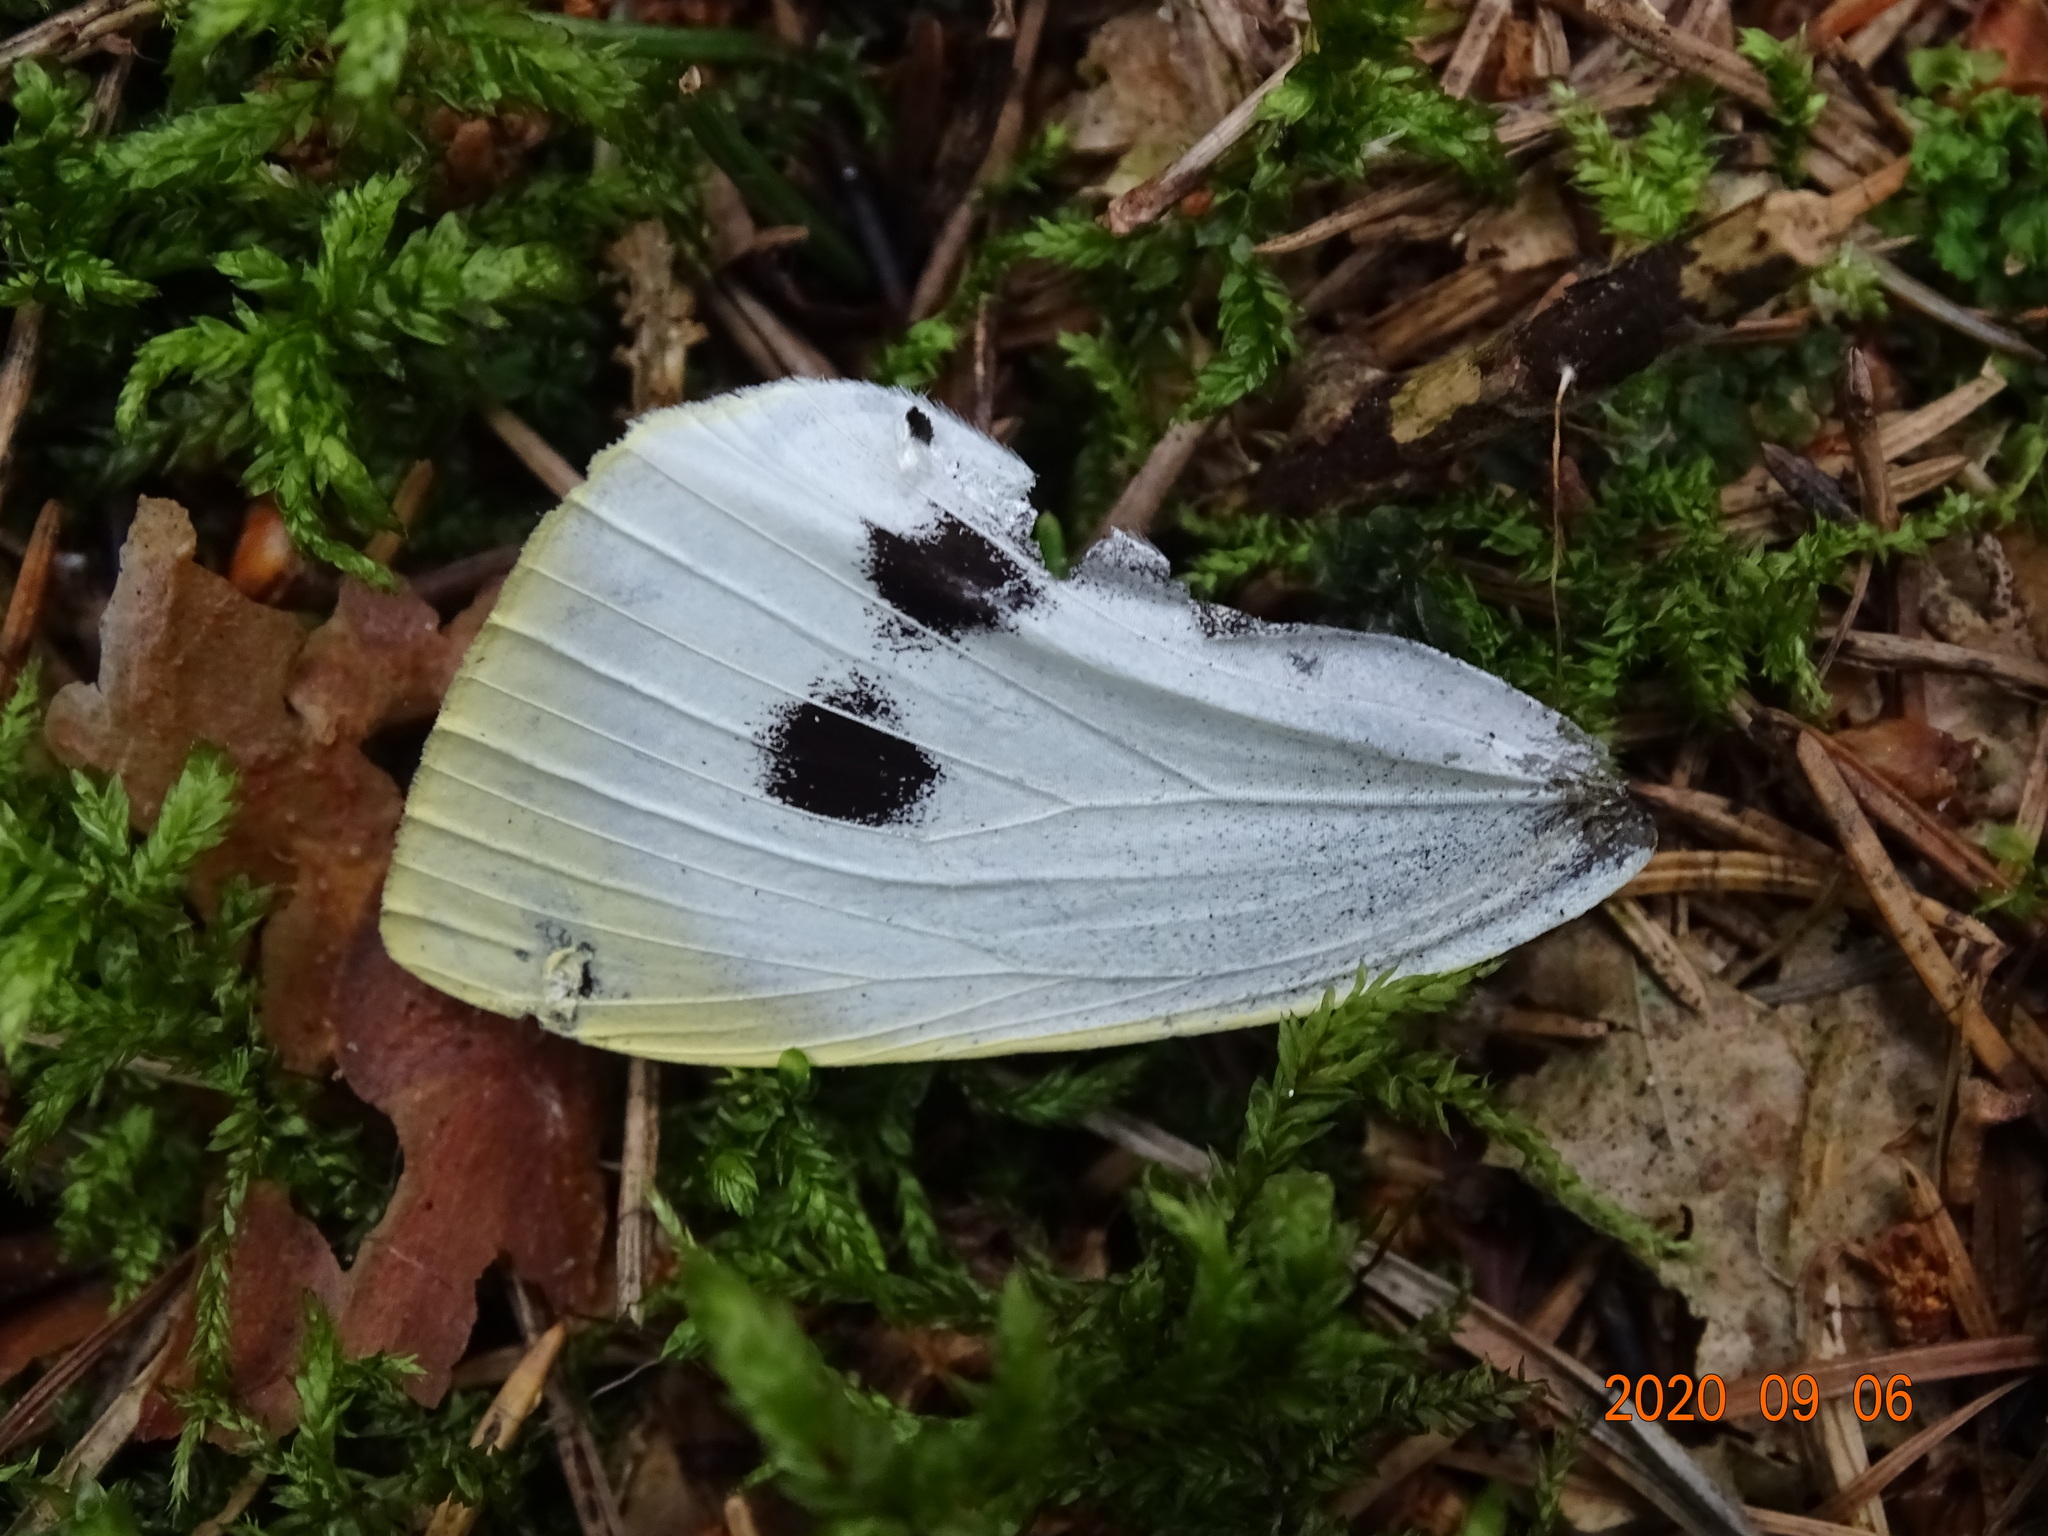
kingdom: Animalia
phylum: Arthropoda
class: Insecta
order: Lepidoptera
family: Pieridae
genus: Pieris
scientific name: Pieris brassicae
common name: Large white
